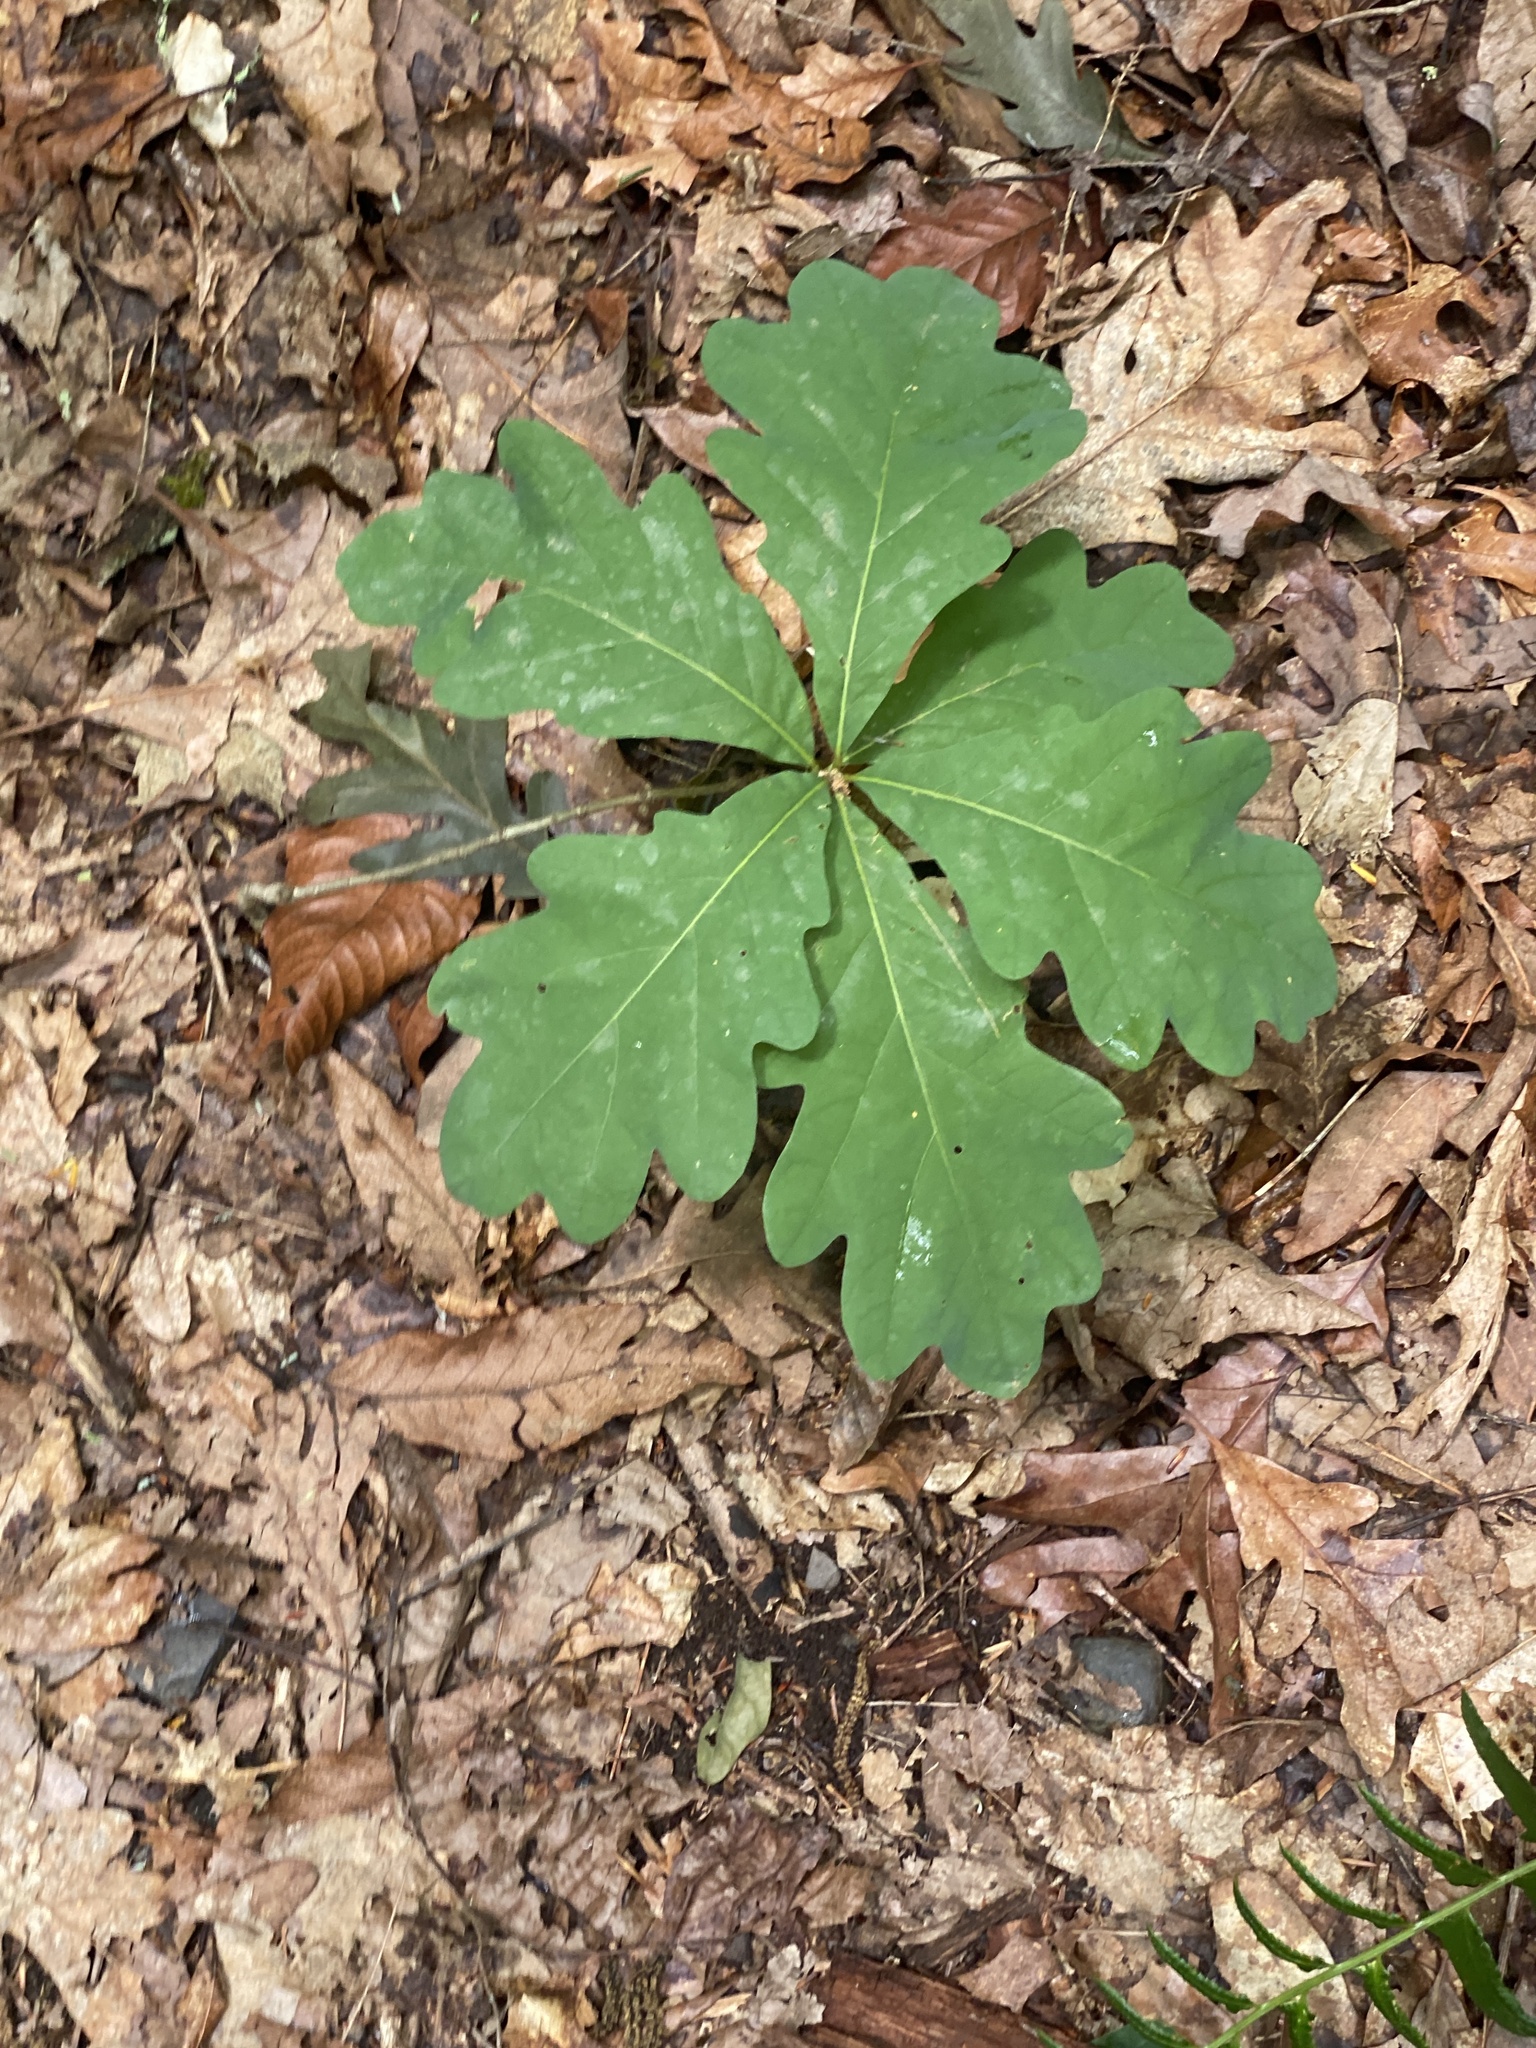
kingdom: Plantae
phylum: Tracheophyta
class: Magnoliopsida
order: Fagales
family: Fagaceae
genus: Quercus
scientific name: Quercus alba
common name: White oak
